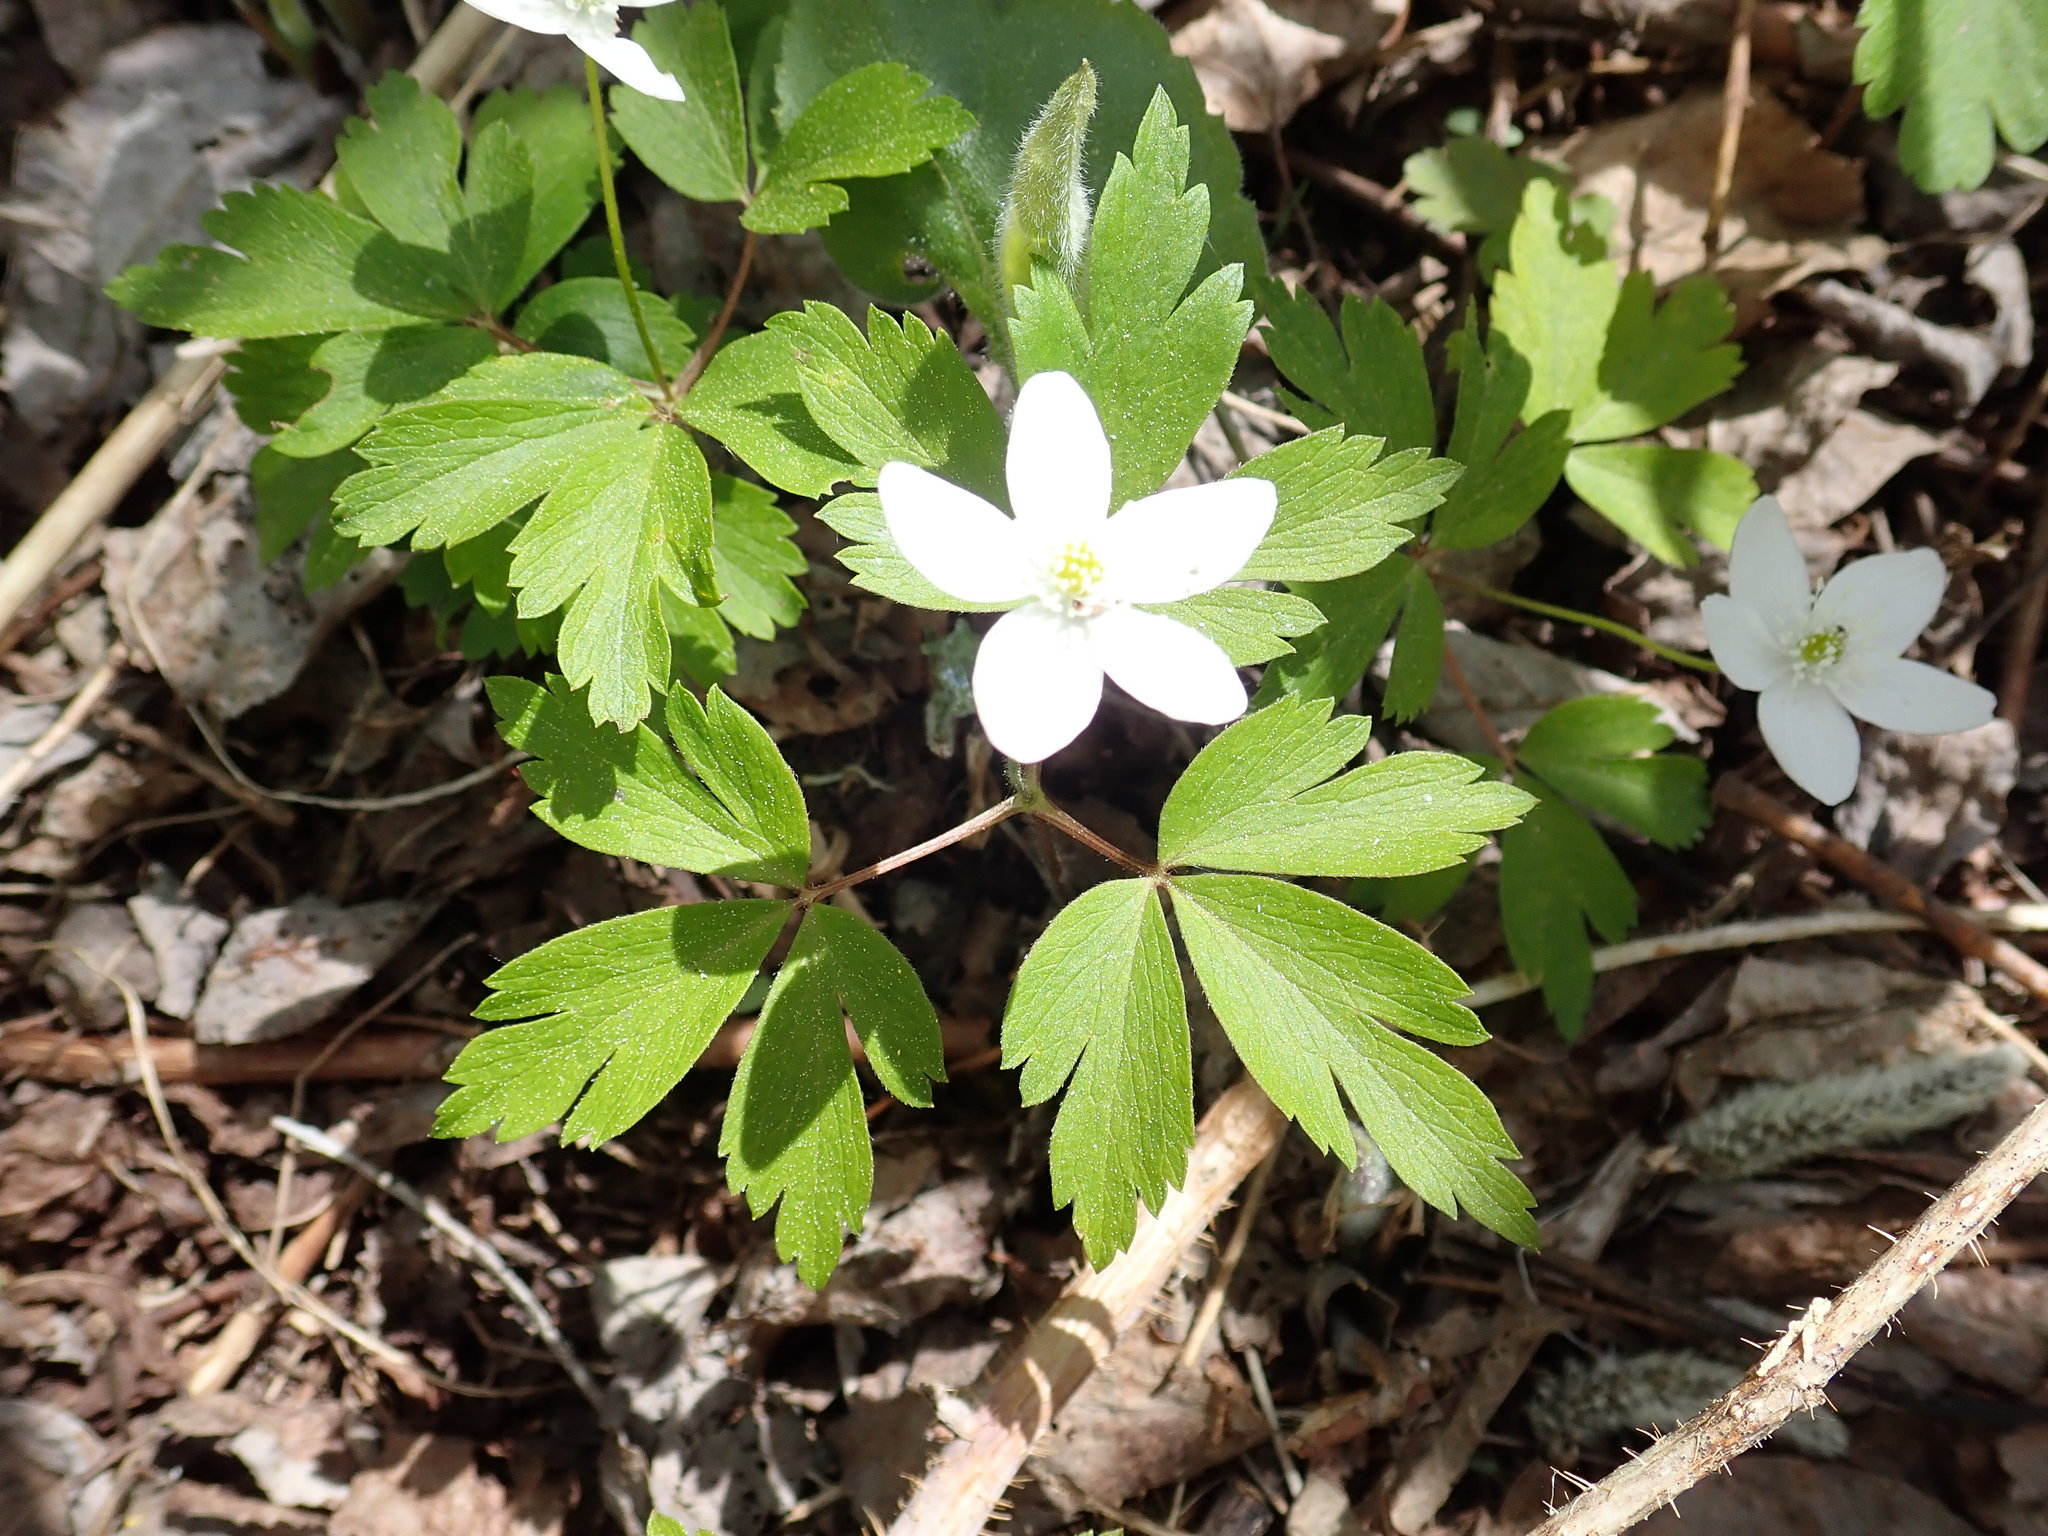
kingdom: Plantae
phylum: Tracheophyta
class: Magnoliopsida
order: Ranunculales
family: Ranunculaceae
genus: Anemone
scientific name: Anemone quinquefolia
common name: Wood anemone
